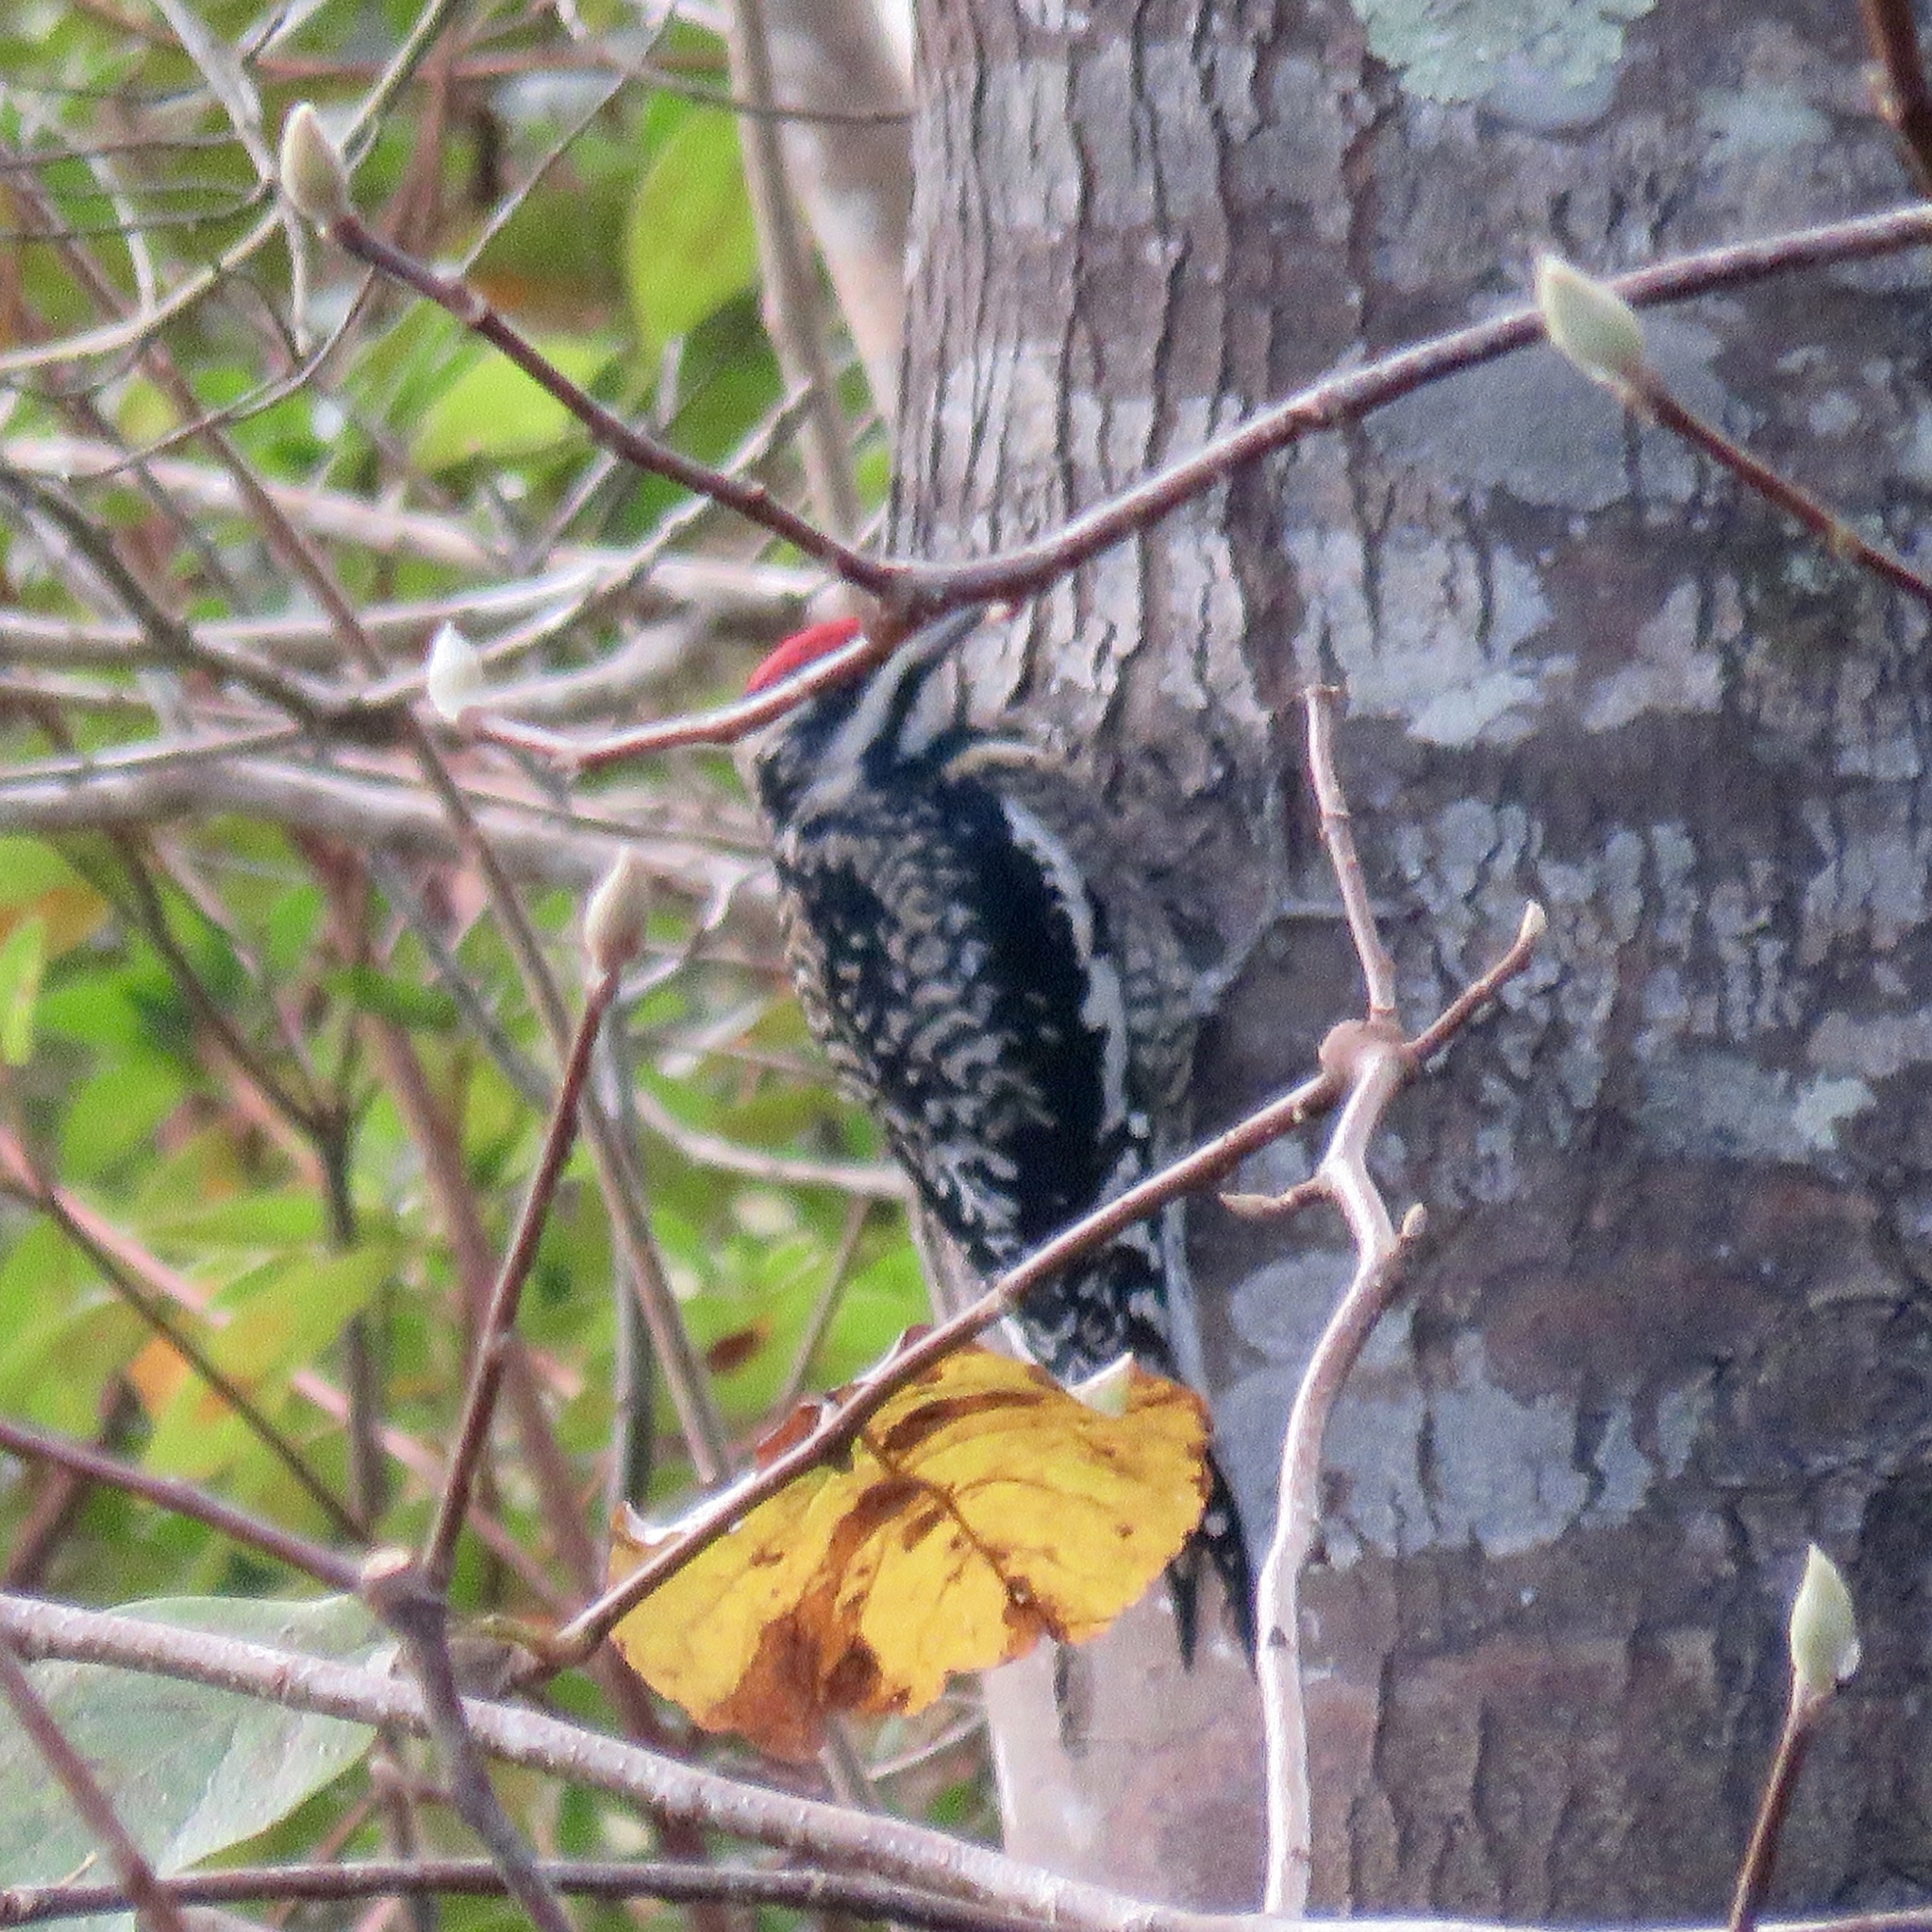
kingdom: Animalia
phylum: Chordata
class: Aves
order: Piciformes
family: Picidae
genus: Sphyrapicus
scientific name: Sphyrapicus varius
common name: Yellow-bellied sapsucker
